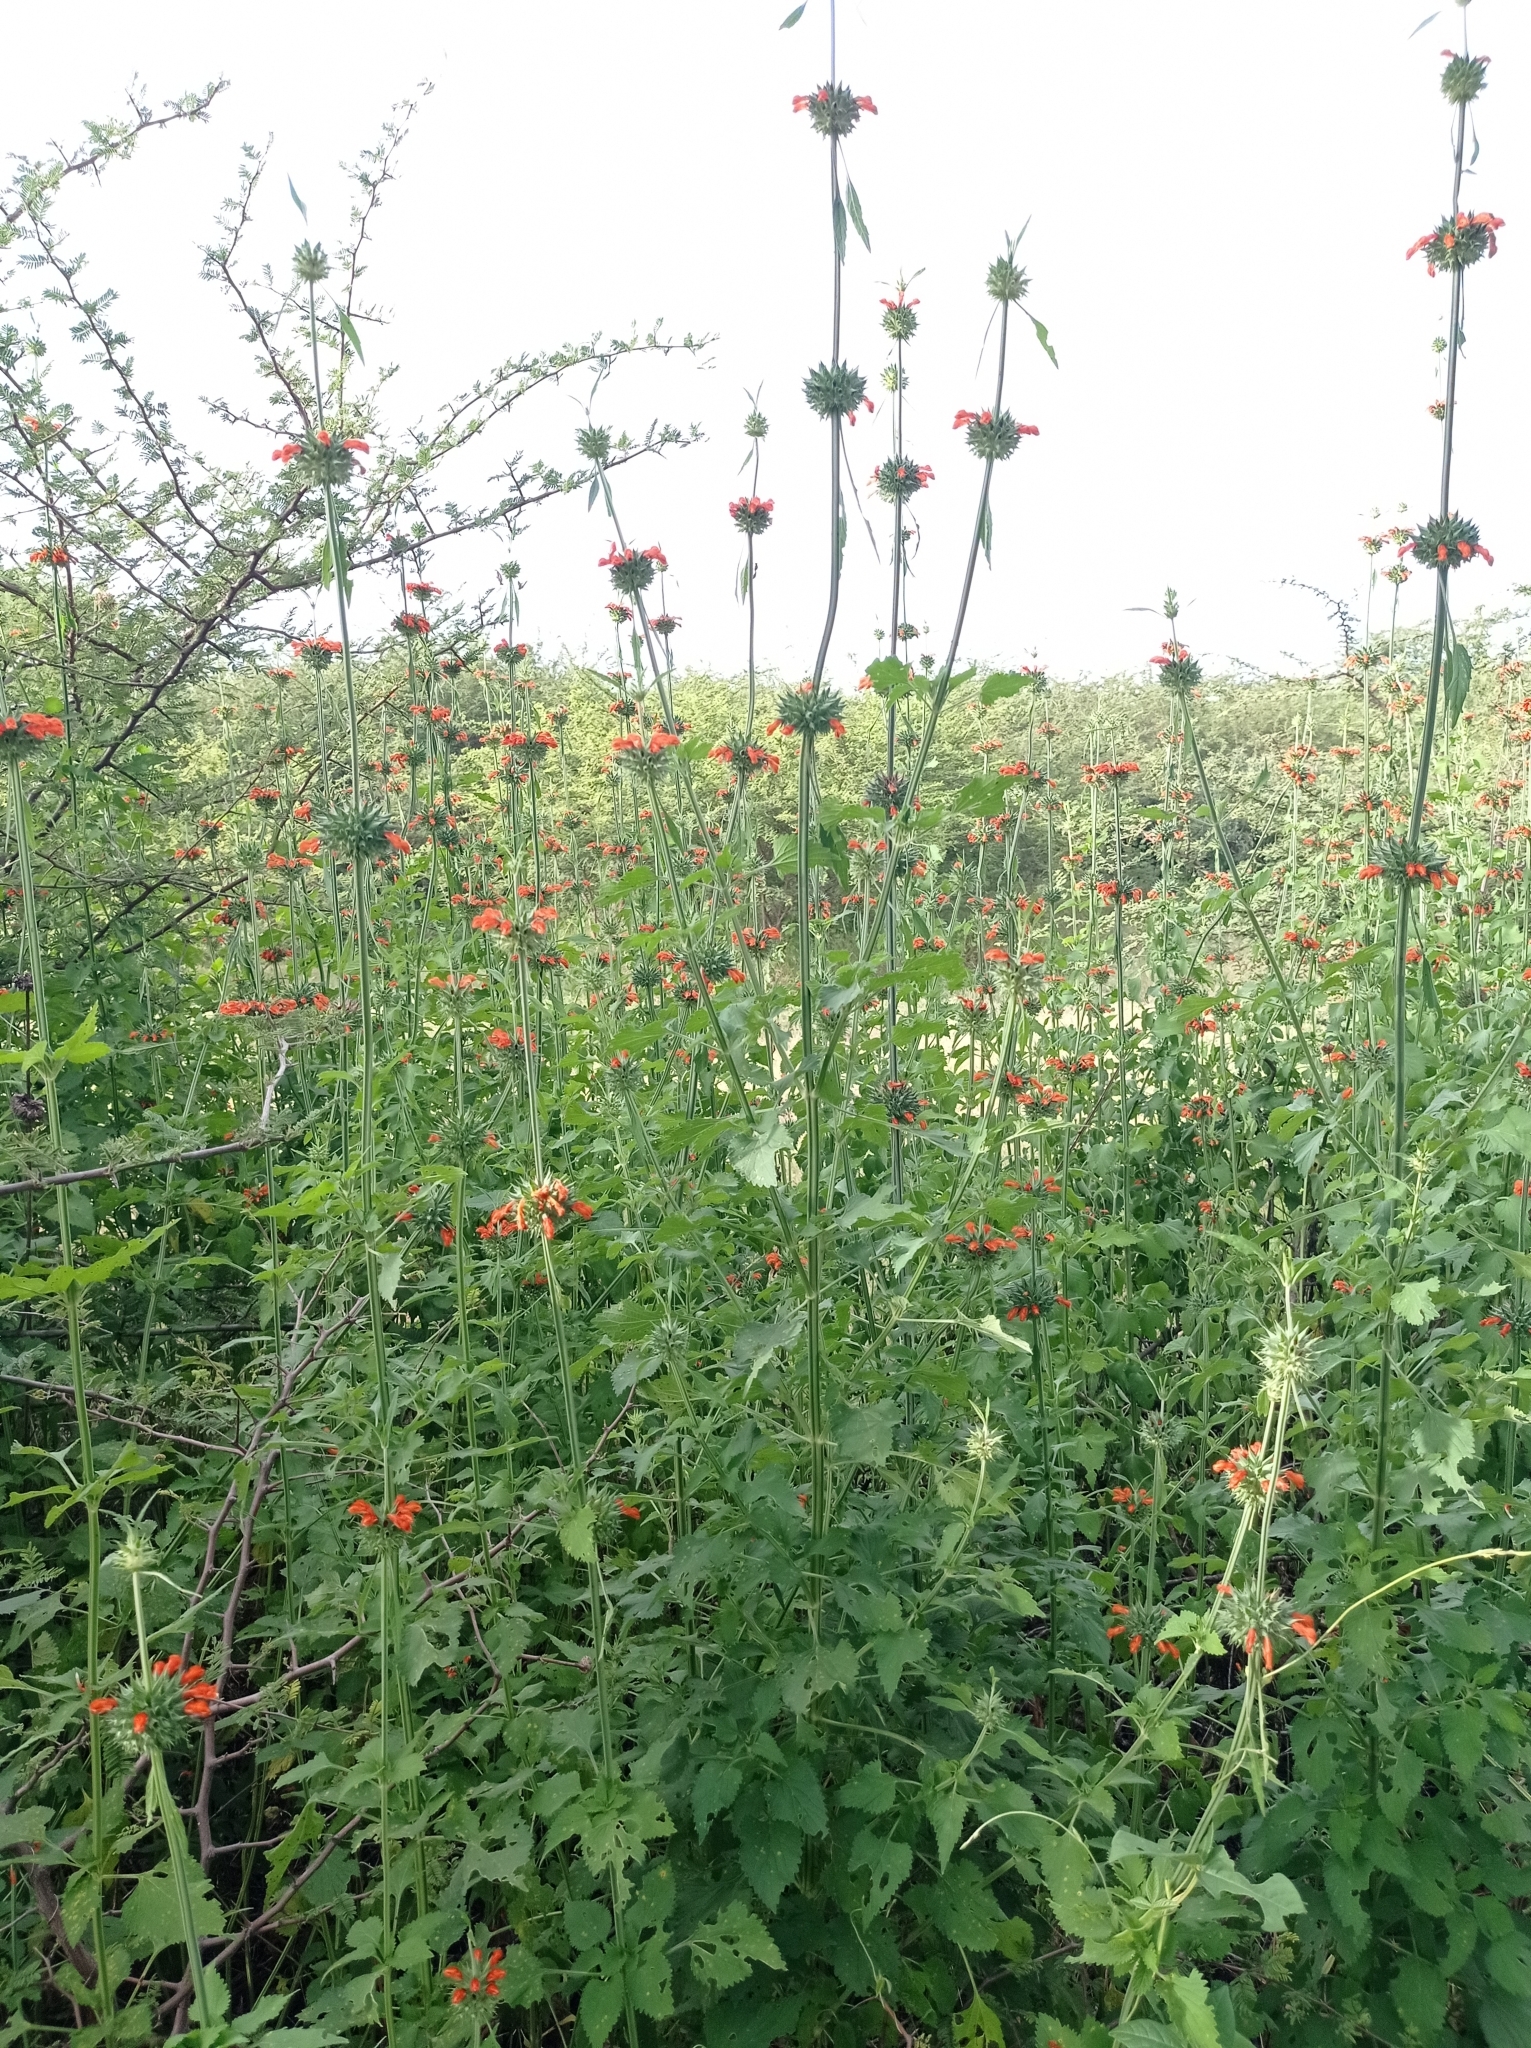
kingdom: Plantae
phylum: Tracheophyta
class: Magnoliopsida
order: Lamiales
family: Lamiaceae
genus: Leonotis
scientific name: Leonotis nepetifolia
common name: Christmas candlestick
